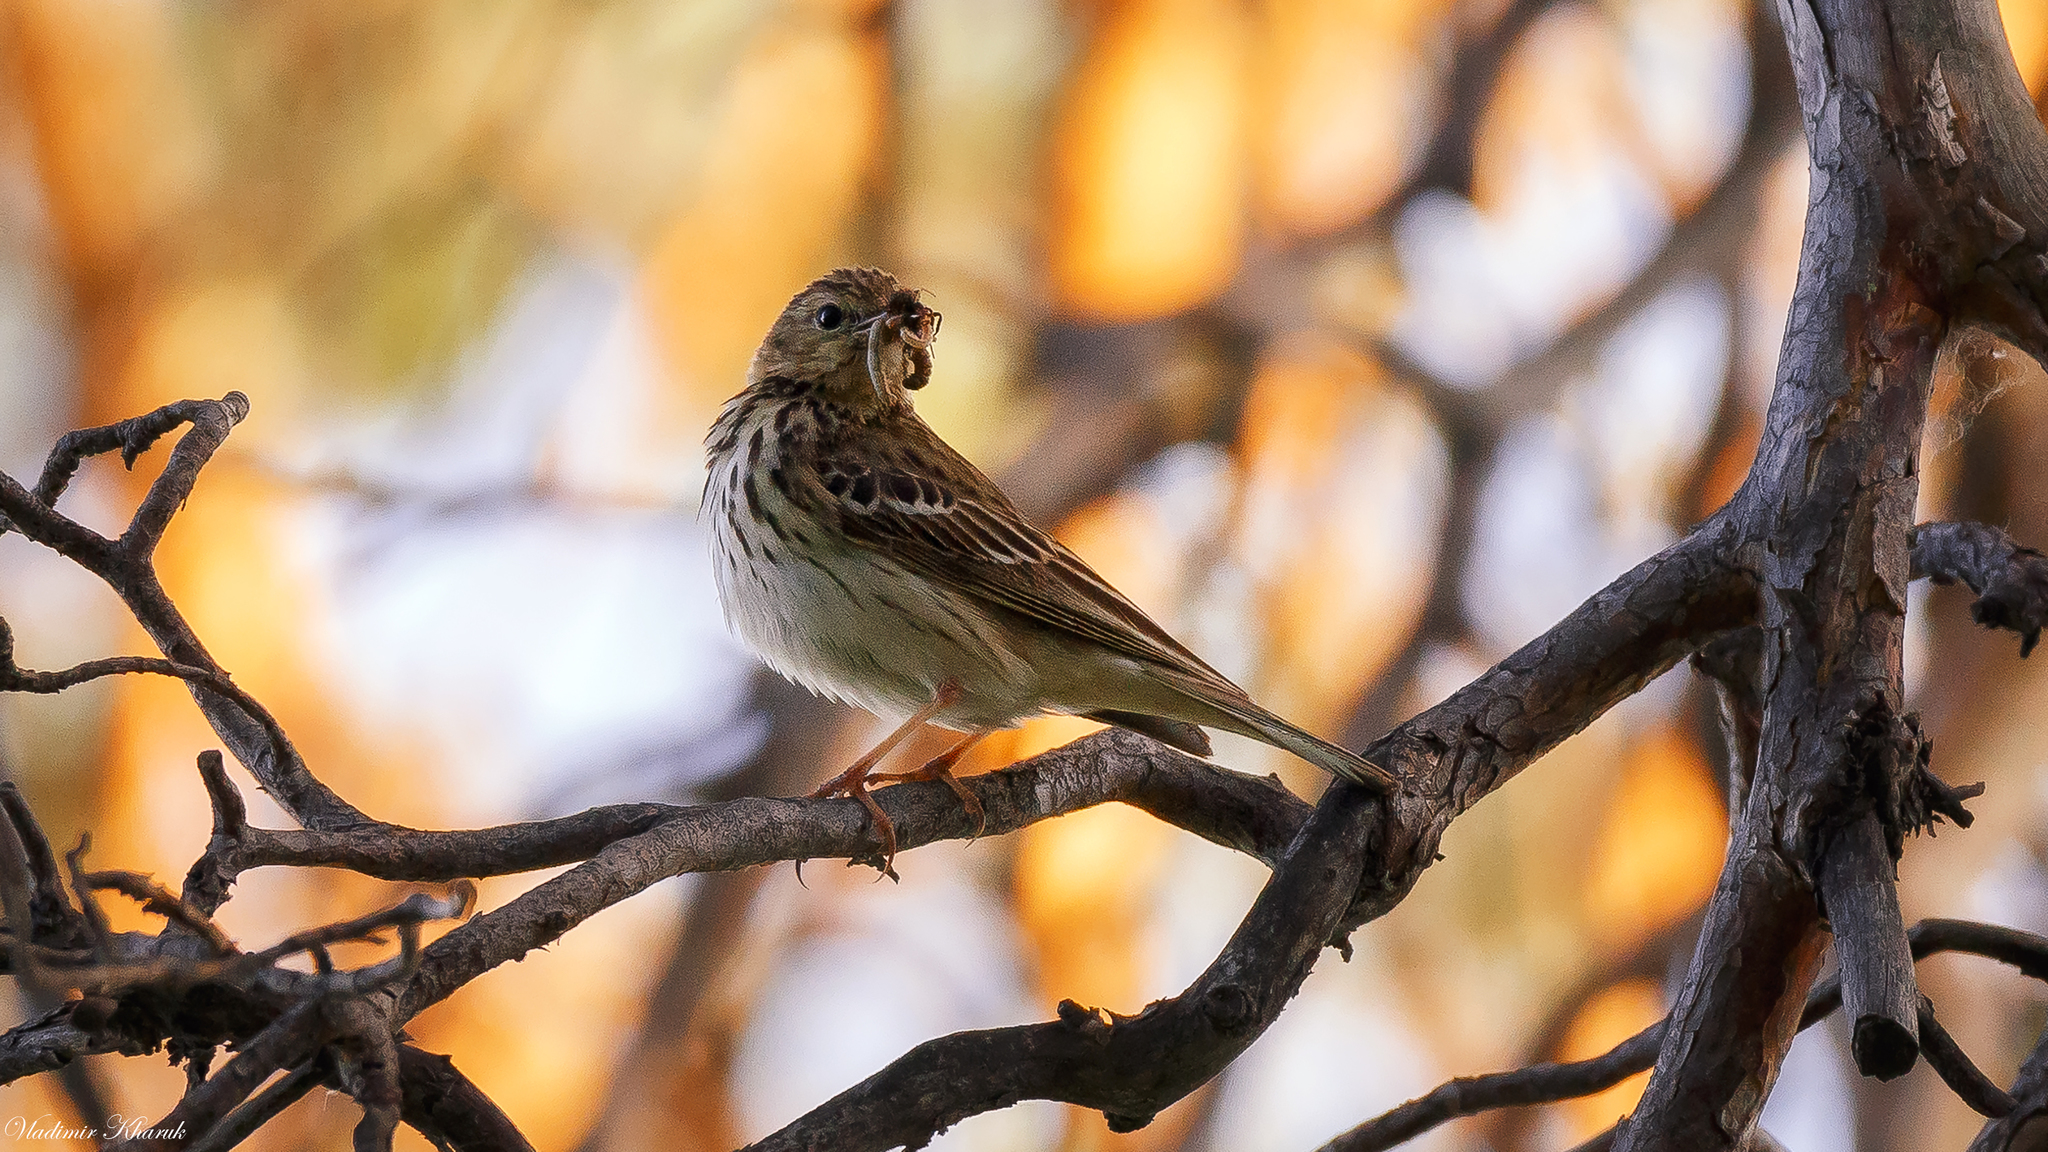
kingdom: Animalia
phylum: Chordata
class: Aves
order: Passeriformes
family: Motacillidae
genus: Anthus
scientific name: Anthus trivialis
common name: Tree pipit
